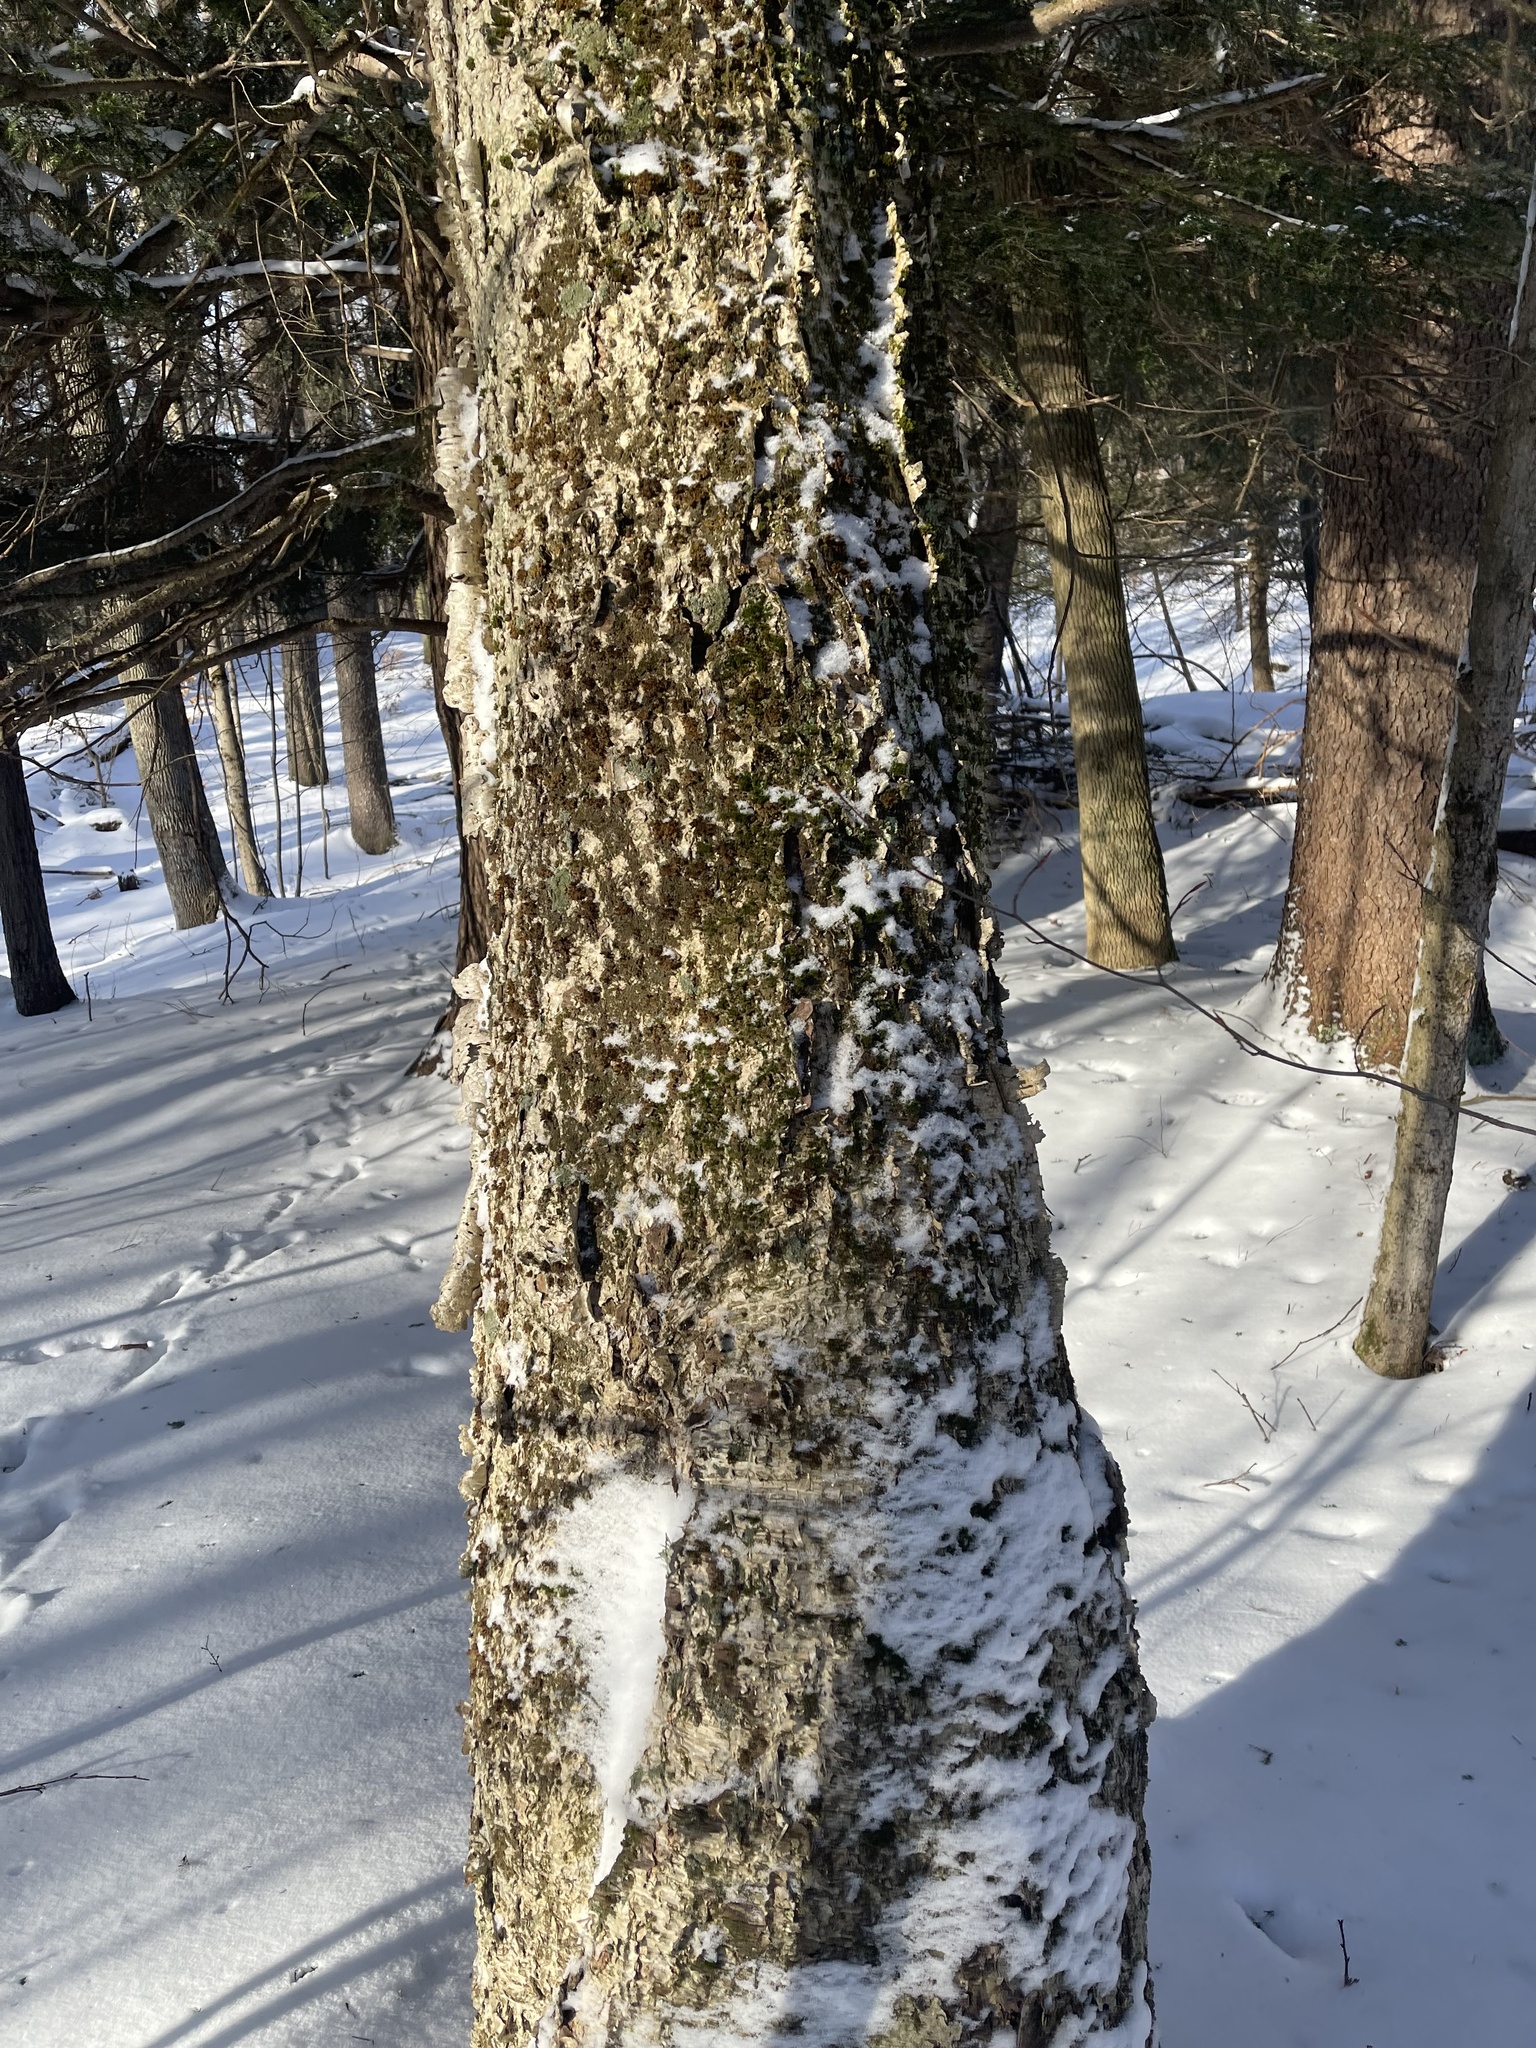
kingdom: Plantae
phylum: Tracheophyta
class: Pinopsida
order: Pinales
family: Pinaceae
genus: Tsuga
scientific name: Tsuga canadensis
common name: Eastern hemlock
